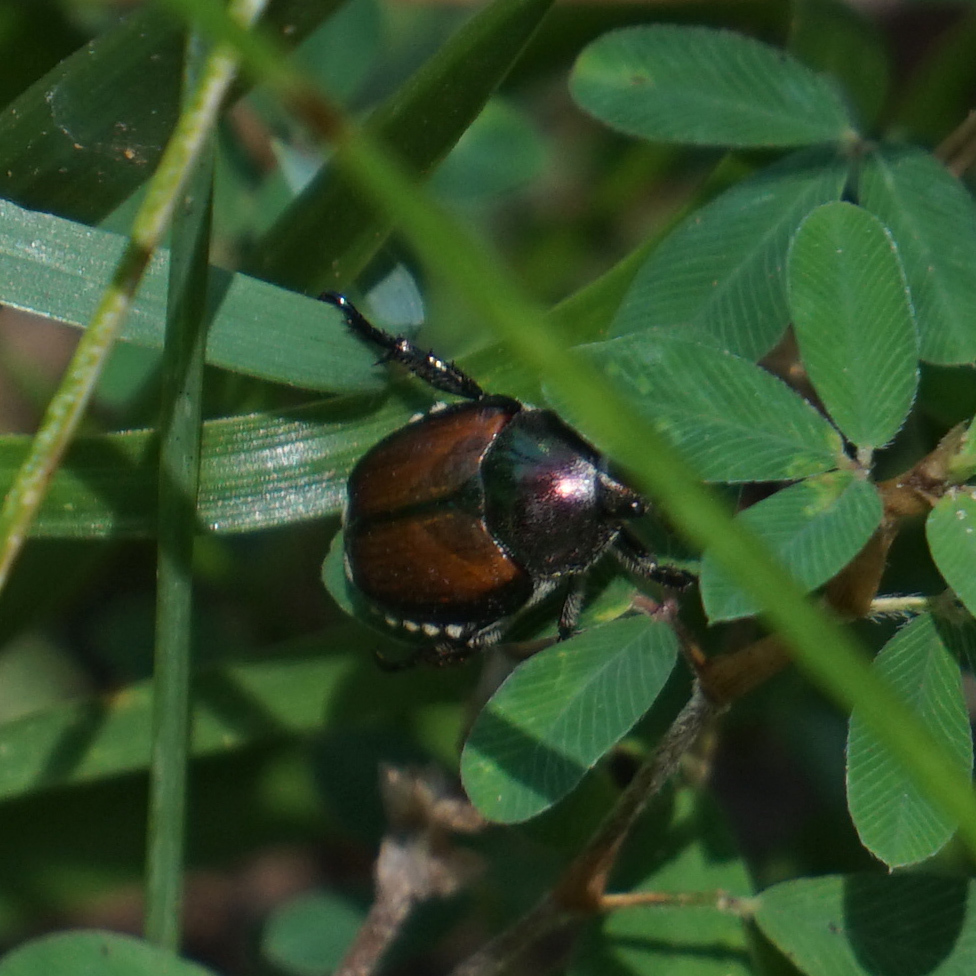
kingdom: Animalia
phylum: Arthropoda
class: Insecta
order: Coleoptera
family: Scarabaeidae
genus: Popillia
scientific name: Popillia japonica
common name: Japanese beetle
